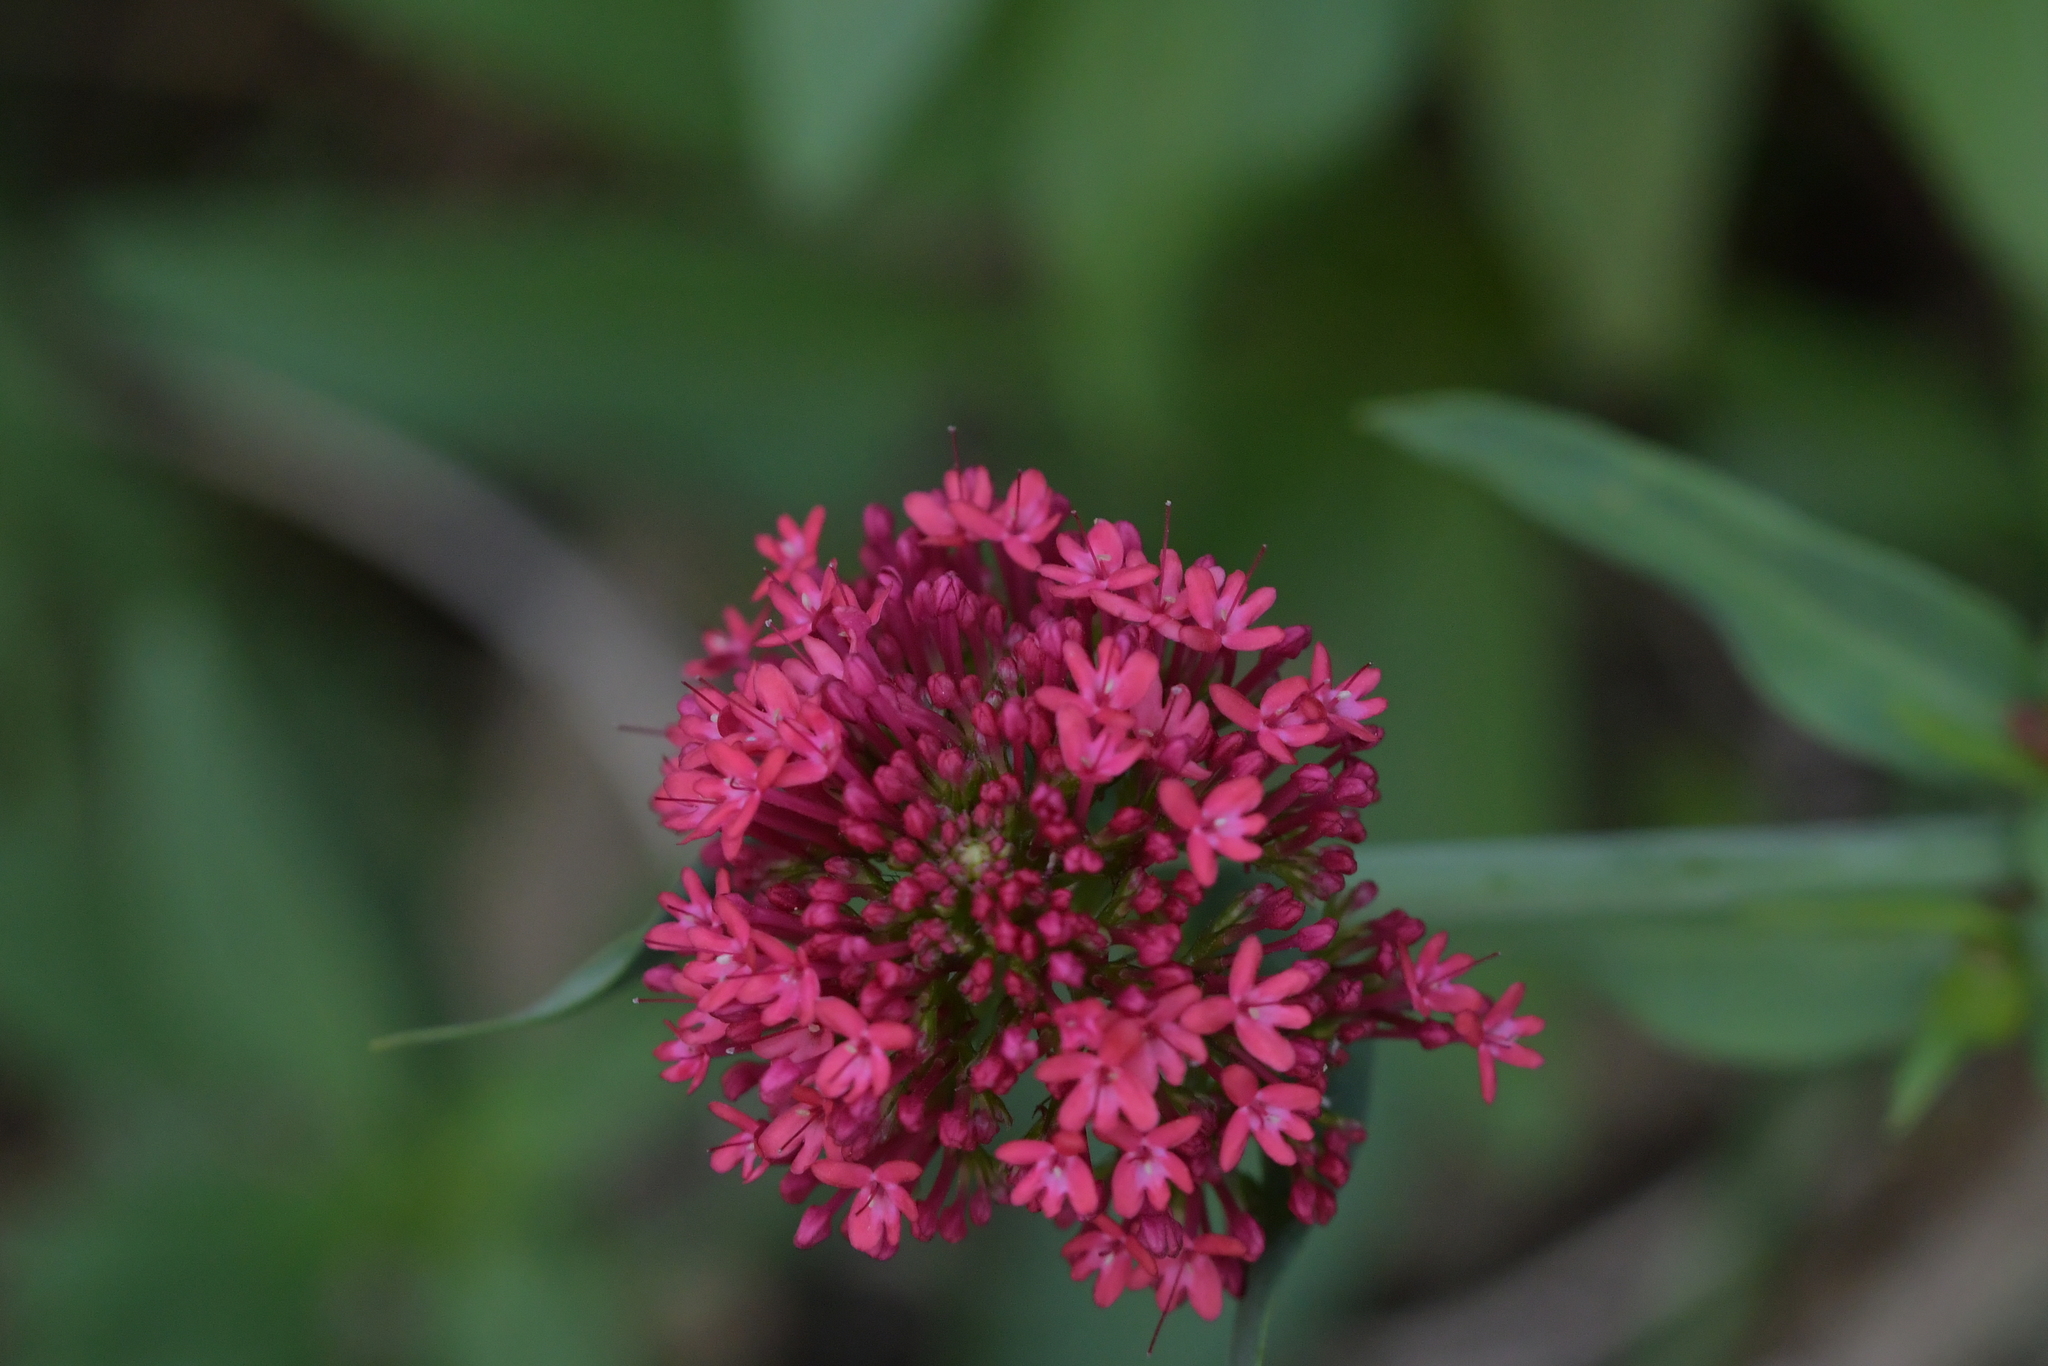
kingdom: Plantae
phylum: Tracheophyta
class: Magnoliopsida
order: Dipsacales
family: Caprifoliaceae
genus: Centranthus
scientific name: Centranthus ruber
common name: Red valerian
